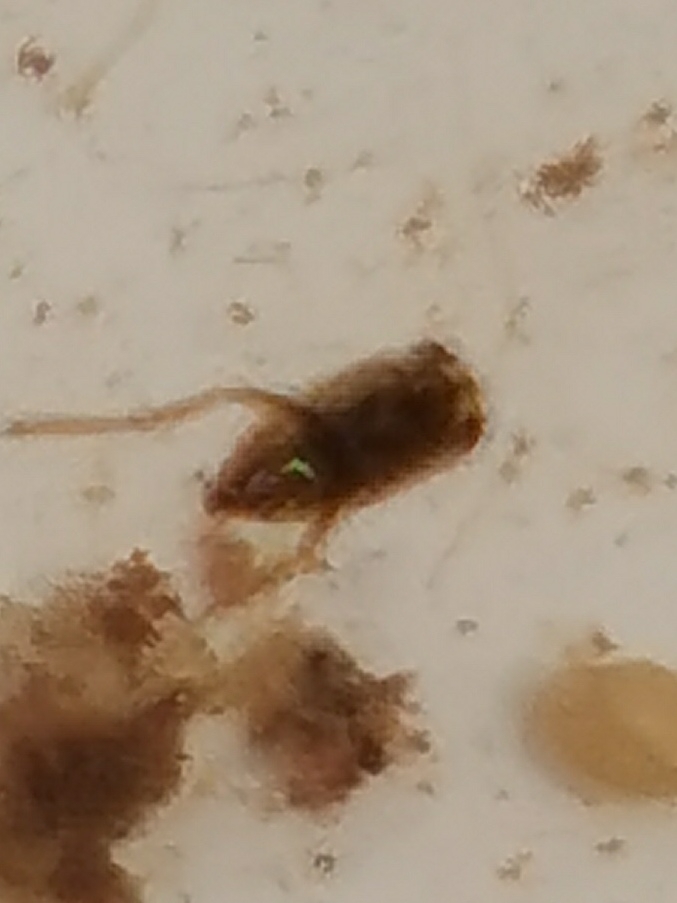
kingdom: Animalia
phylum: Arthropoda
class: Insecta
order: Hemiptera
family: Notonectidae
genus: Notonecta
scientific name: Notonecta
